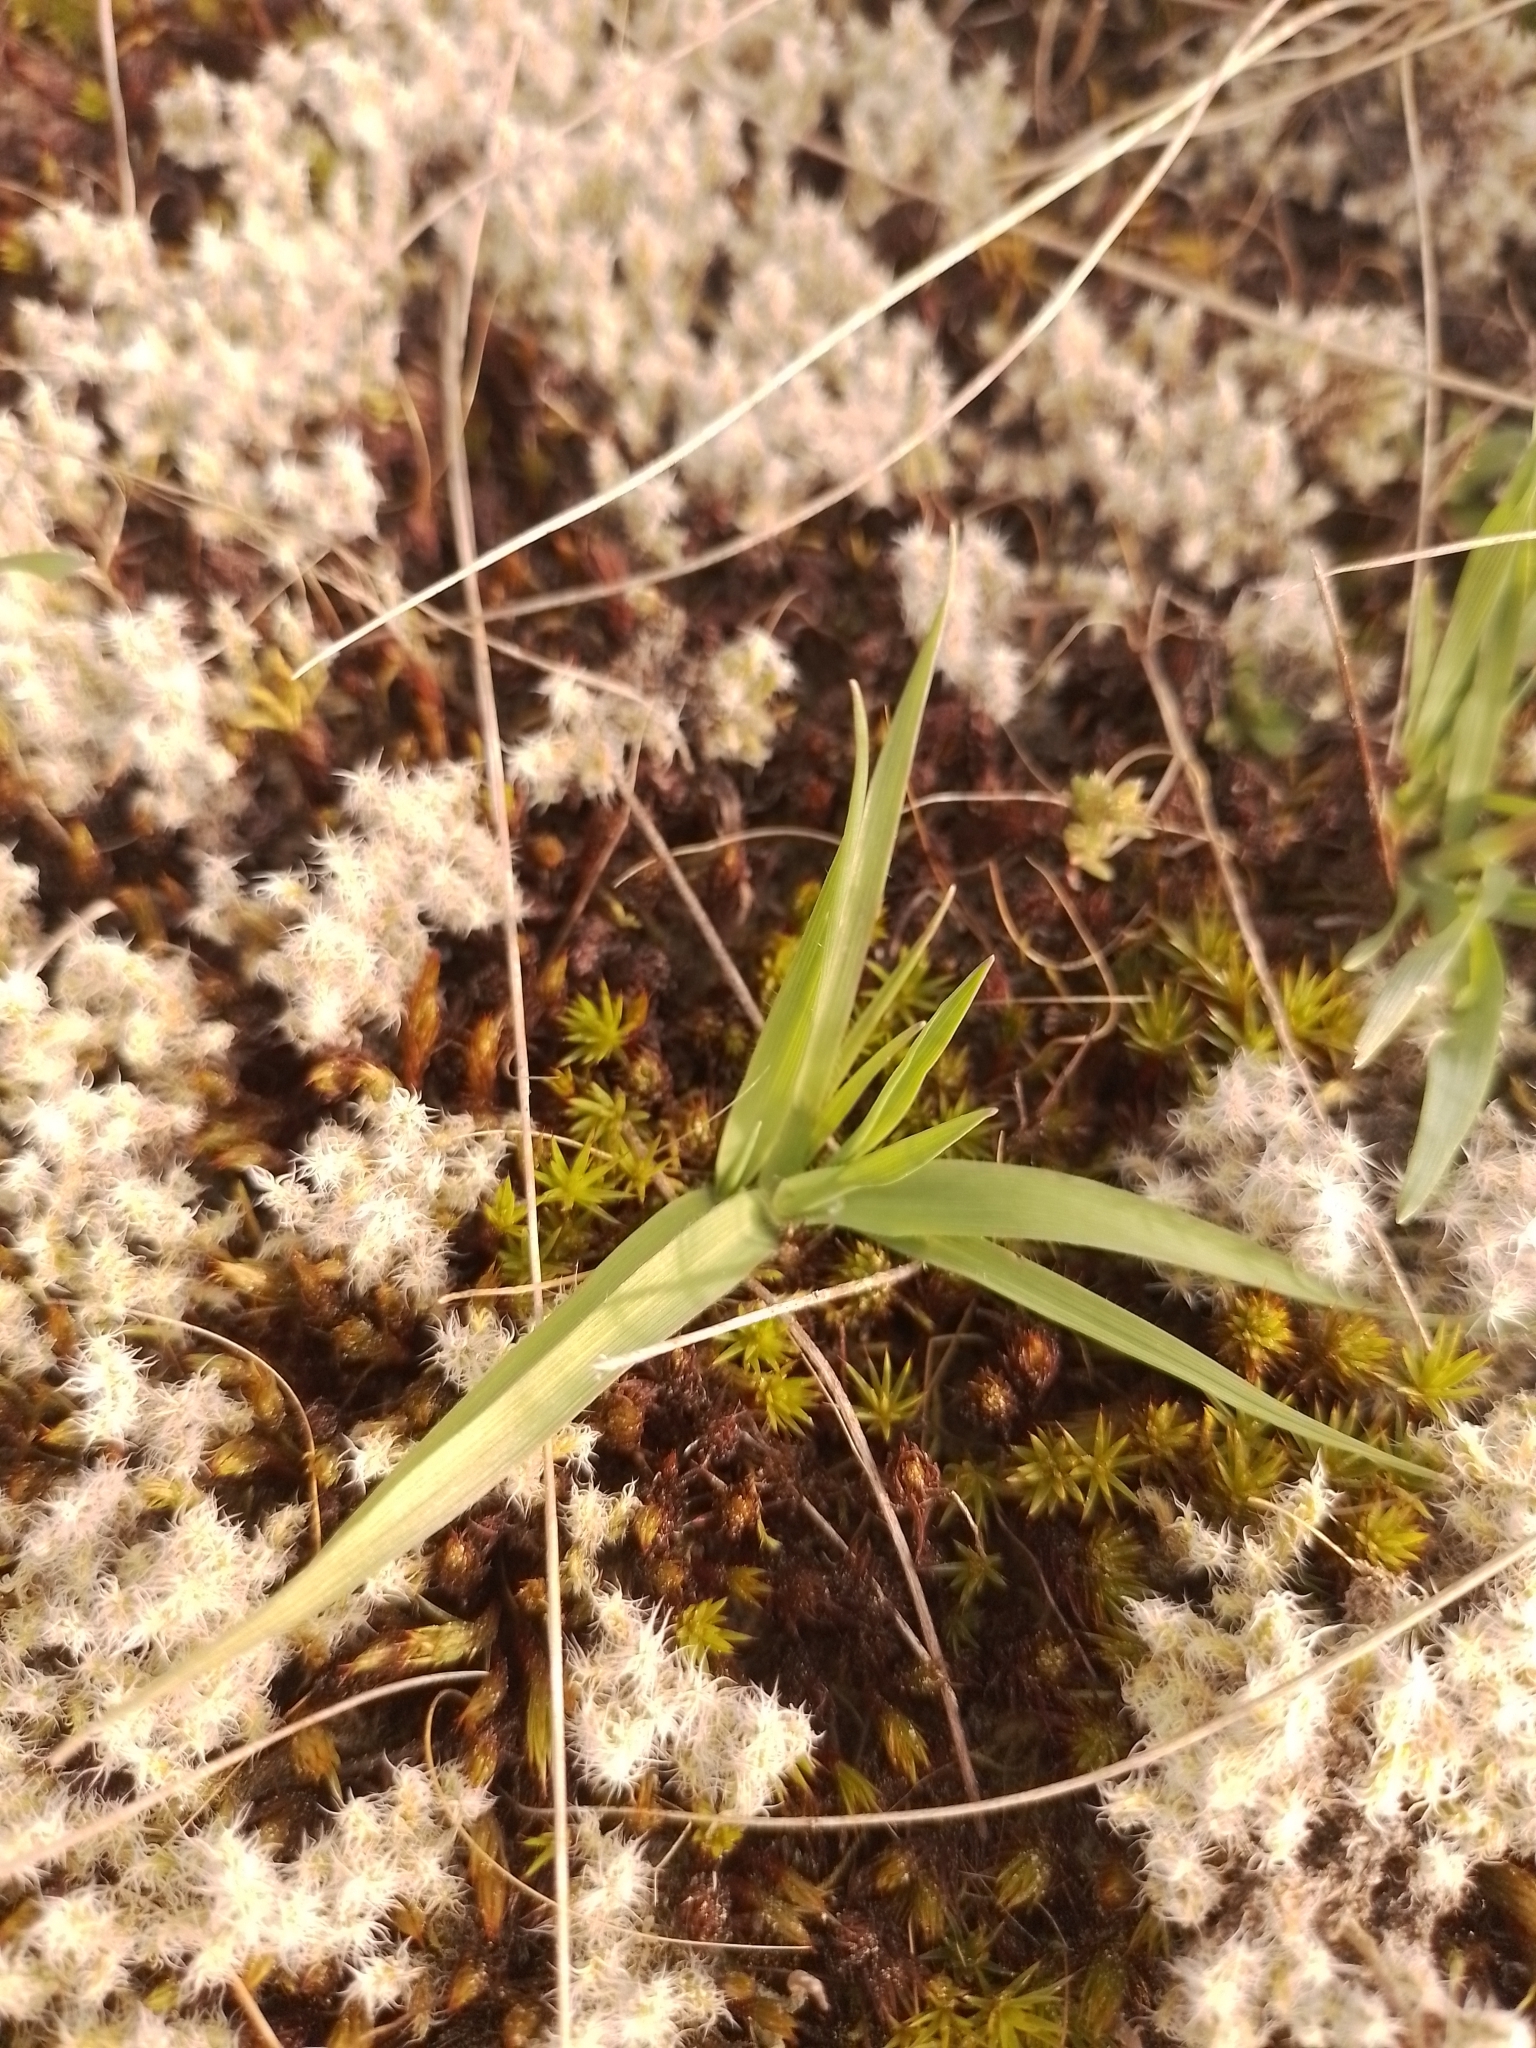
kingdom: Plantae
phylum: Tracheophyta
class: Liliopsida
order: Poales
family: Poaceae
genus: Anthoxanthum
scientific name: Anthoxanthum odoratum
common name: Sweet vernalgrass
